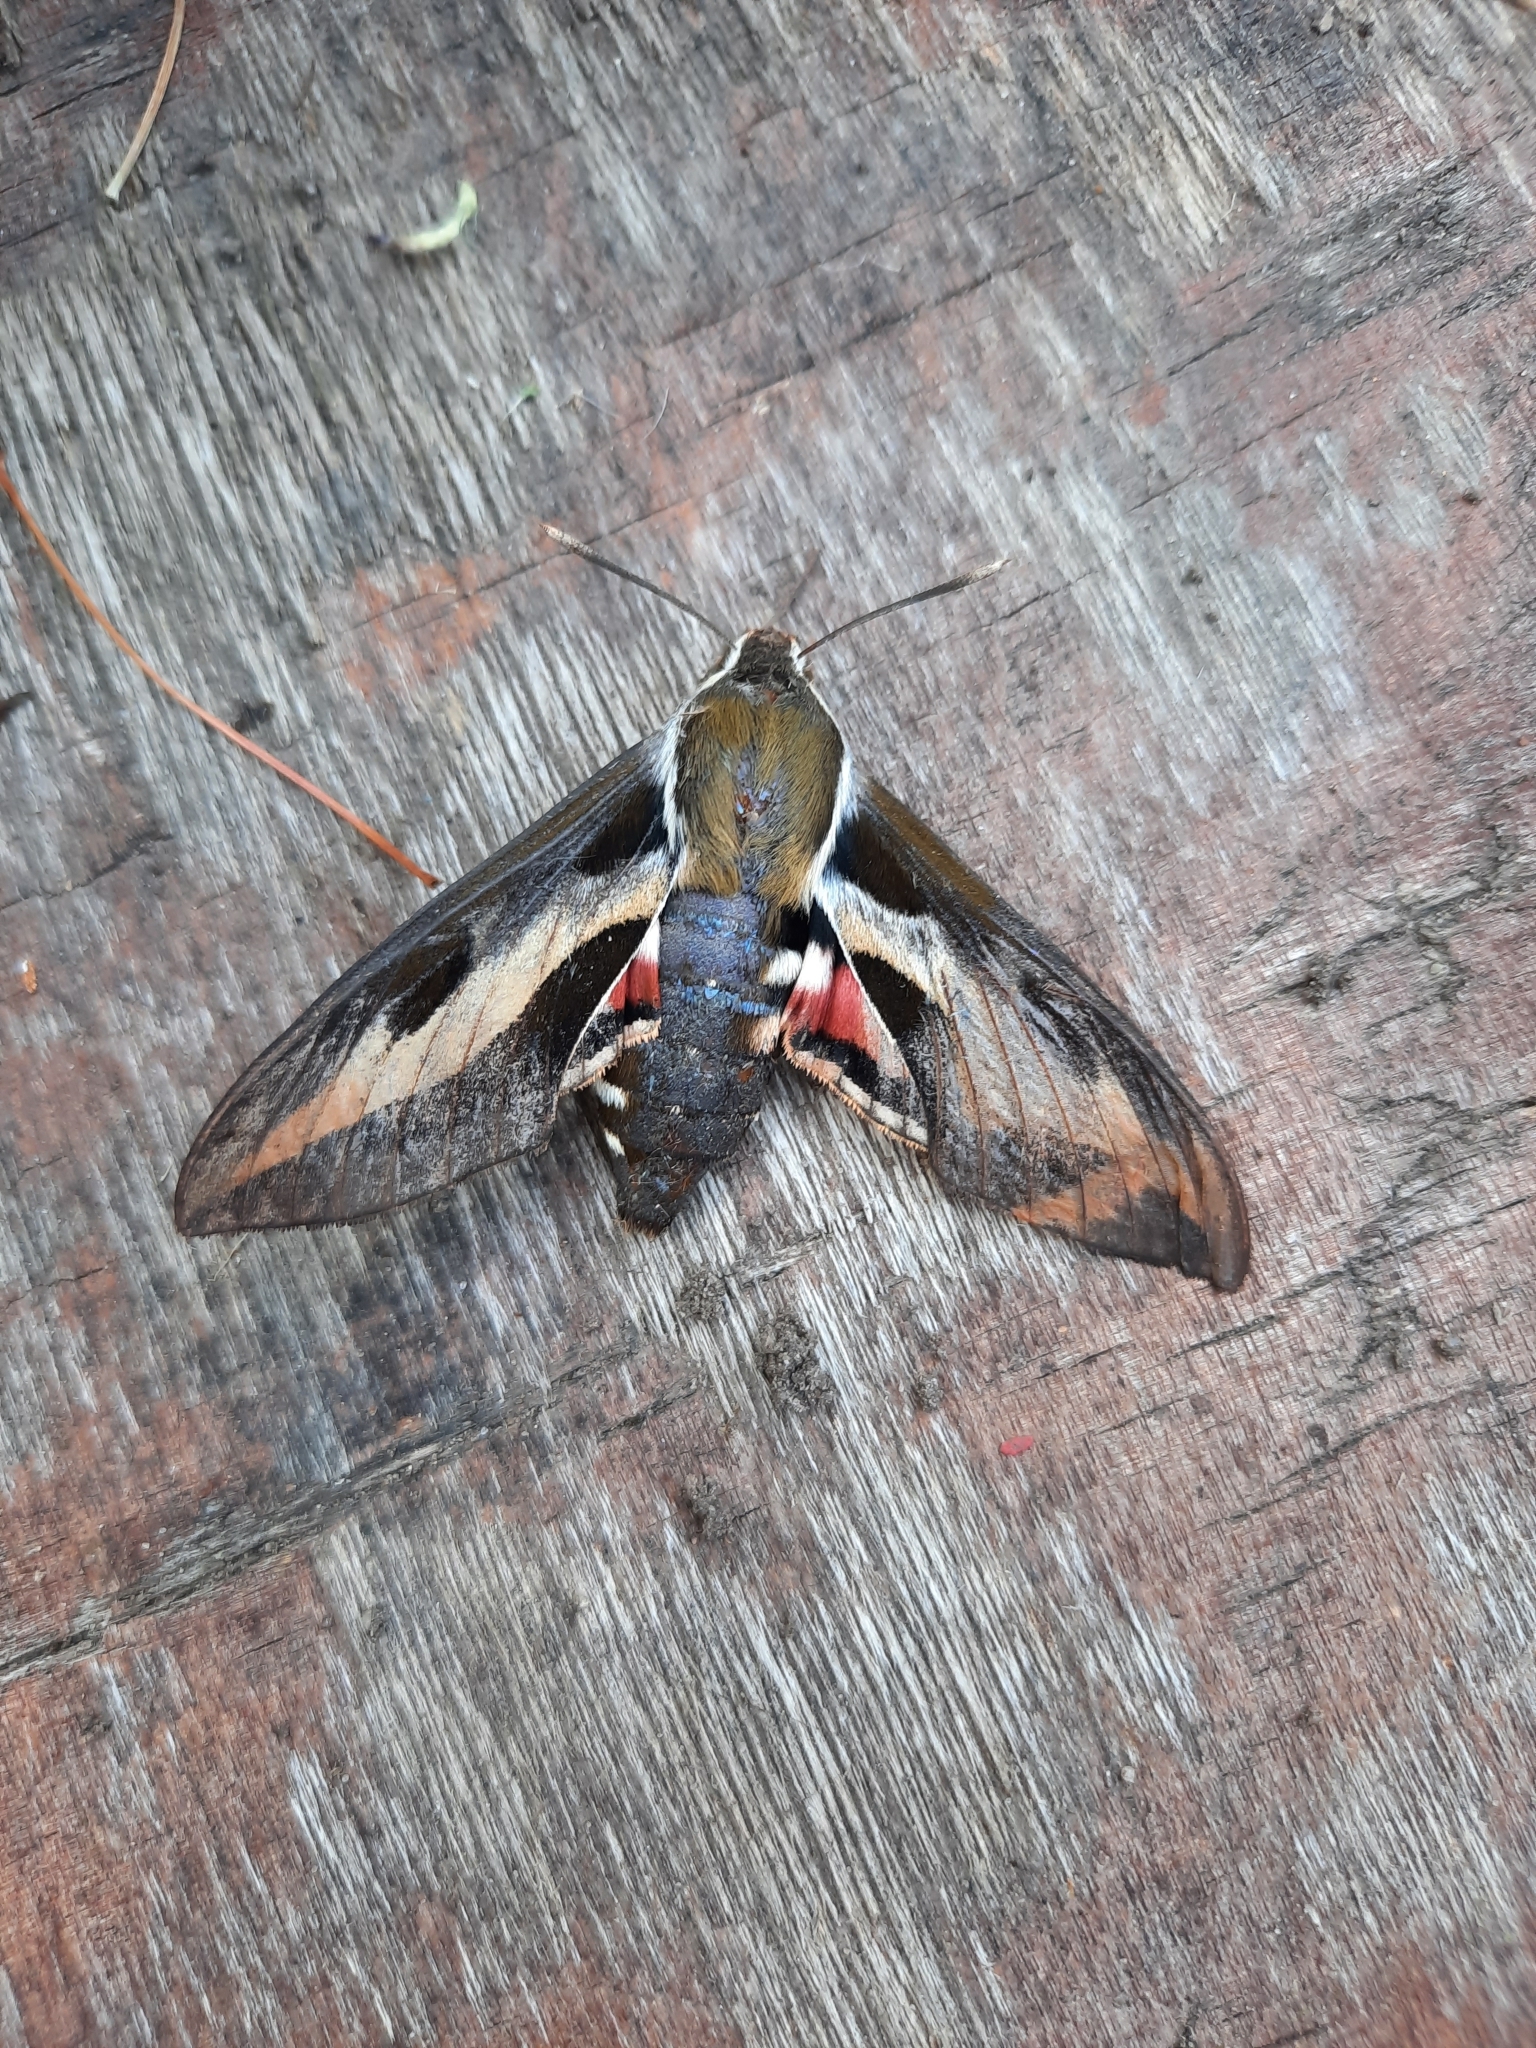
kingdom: Animalia
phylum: Arthropoda
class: Insecta
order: Lepidoptera
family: Sphingidae
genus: Hyles
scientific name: Hyles gallii
